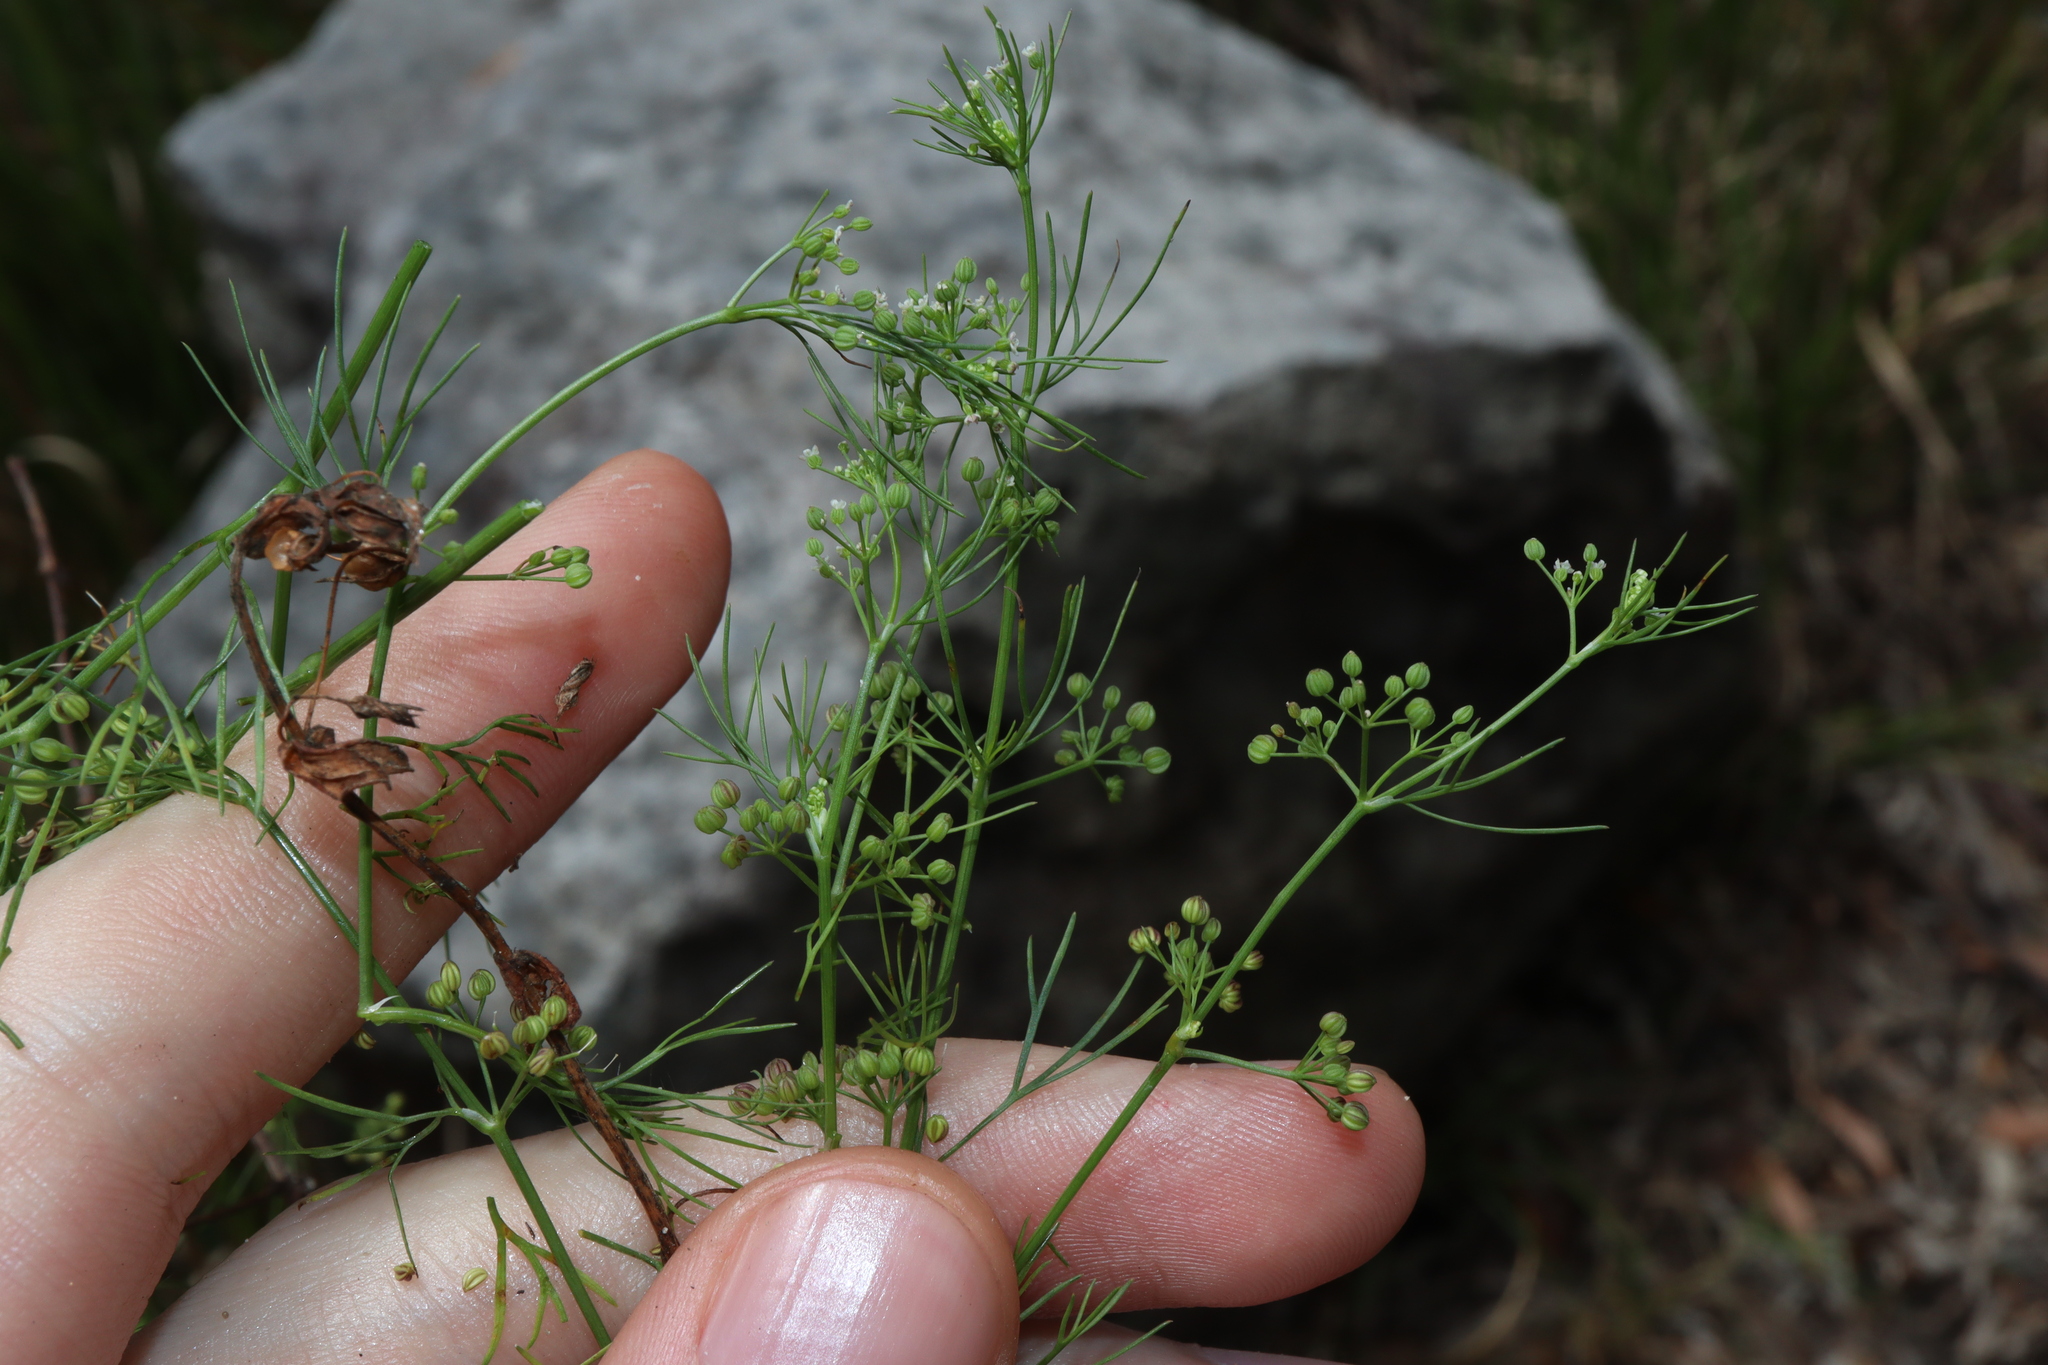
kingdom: Plantae
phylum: Tracheophyta
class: Magnoliopsida
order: Apiales
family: Apiaceae
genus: Cyclospermum
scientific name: Cyclospermum leptophyllum
